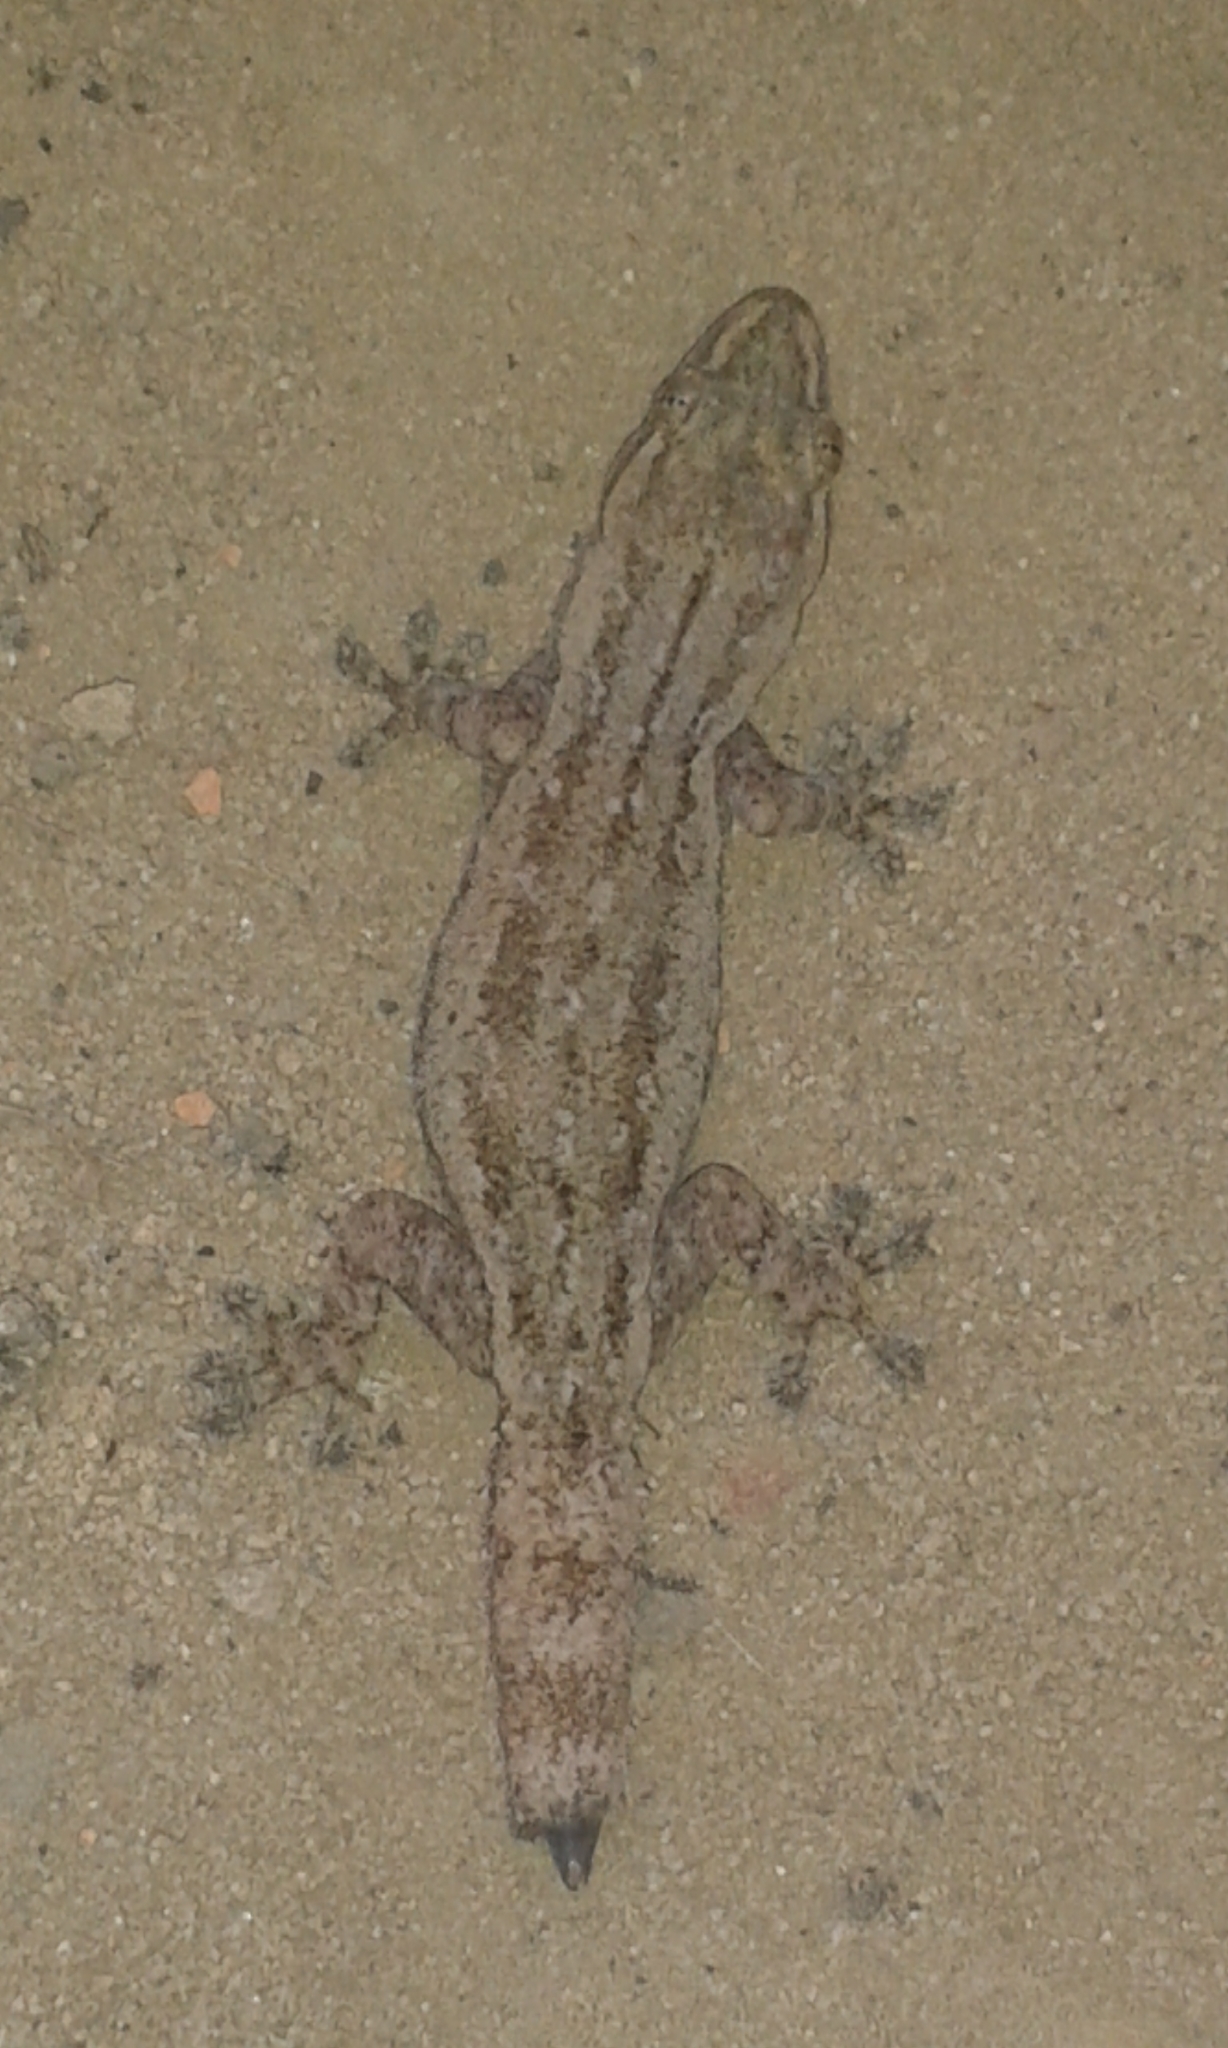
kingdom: Animalia
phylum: Chordata
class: Squamata
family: Gekkonidae
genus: Hemidactylus
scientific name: Hemidactylus frenatus
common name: Common house gecko
